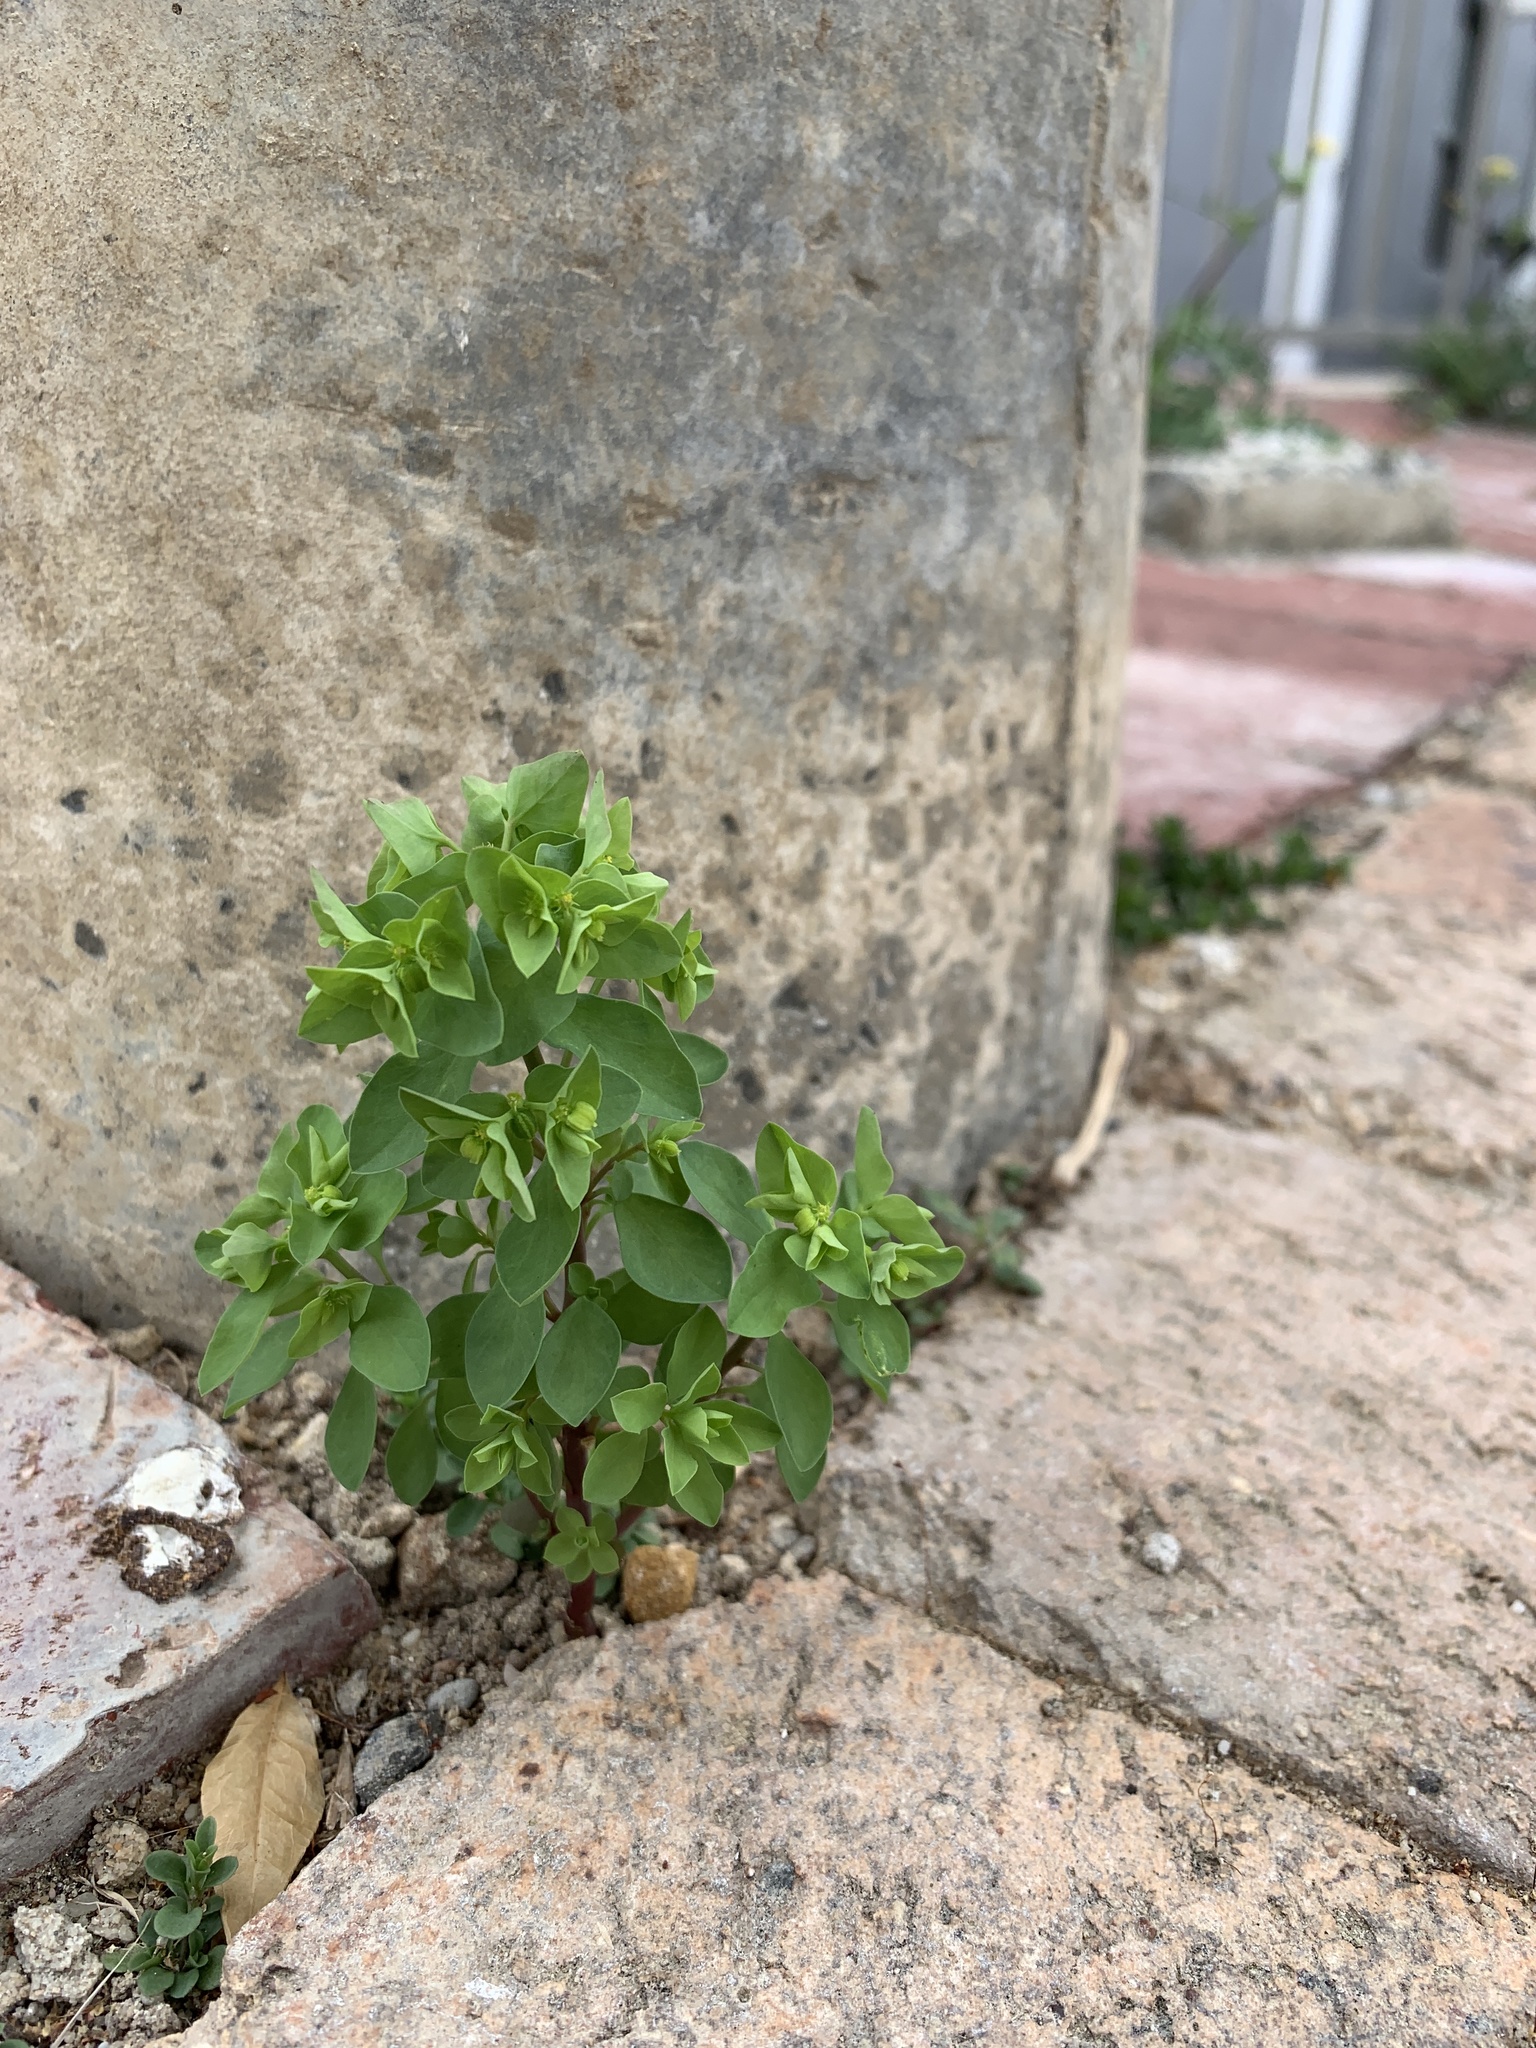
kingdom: Plantae
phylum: Tracheophyta
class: Magnoliopsida
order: Malpighiales
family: Euphorbiaceae
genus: Euphorbia
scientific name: Euphorbia peplus
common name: Petty spurge
